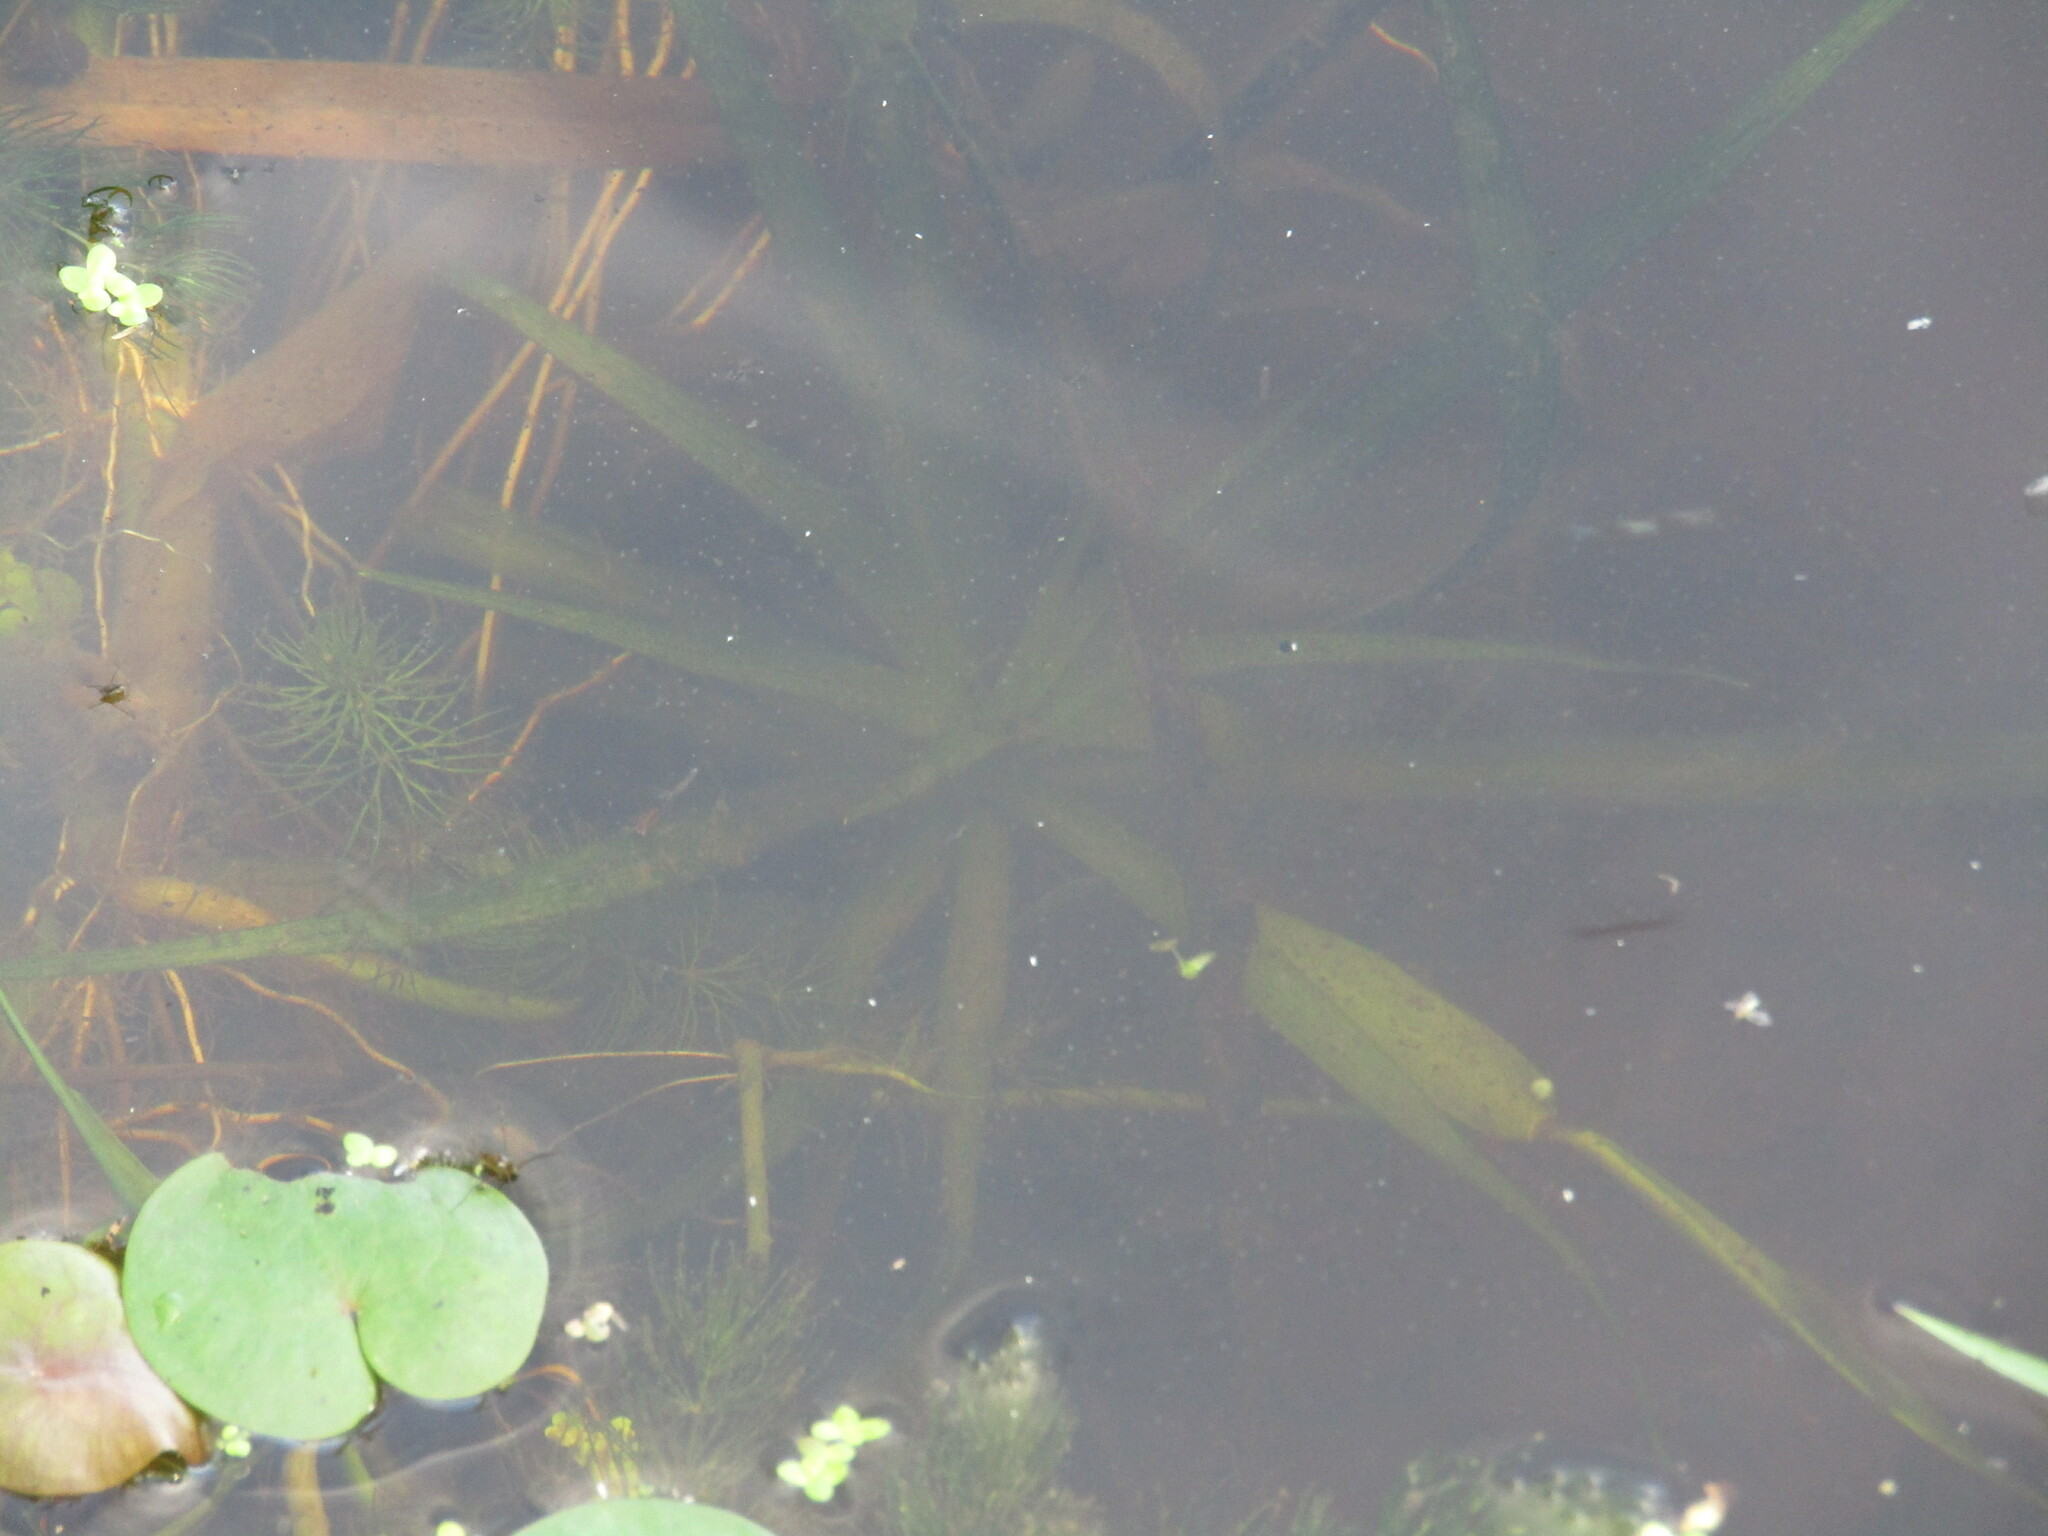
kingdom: Plantae
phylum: Tracheophyta
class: Liliopsida
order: Alismatales
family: Hydrocharitaceae
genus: Stratiotes
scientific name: Stratiotes aloides
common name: Water-soldier
